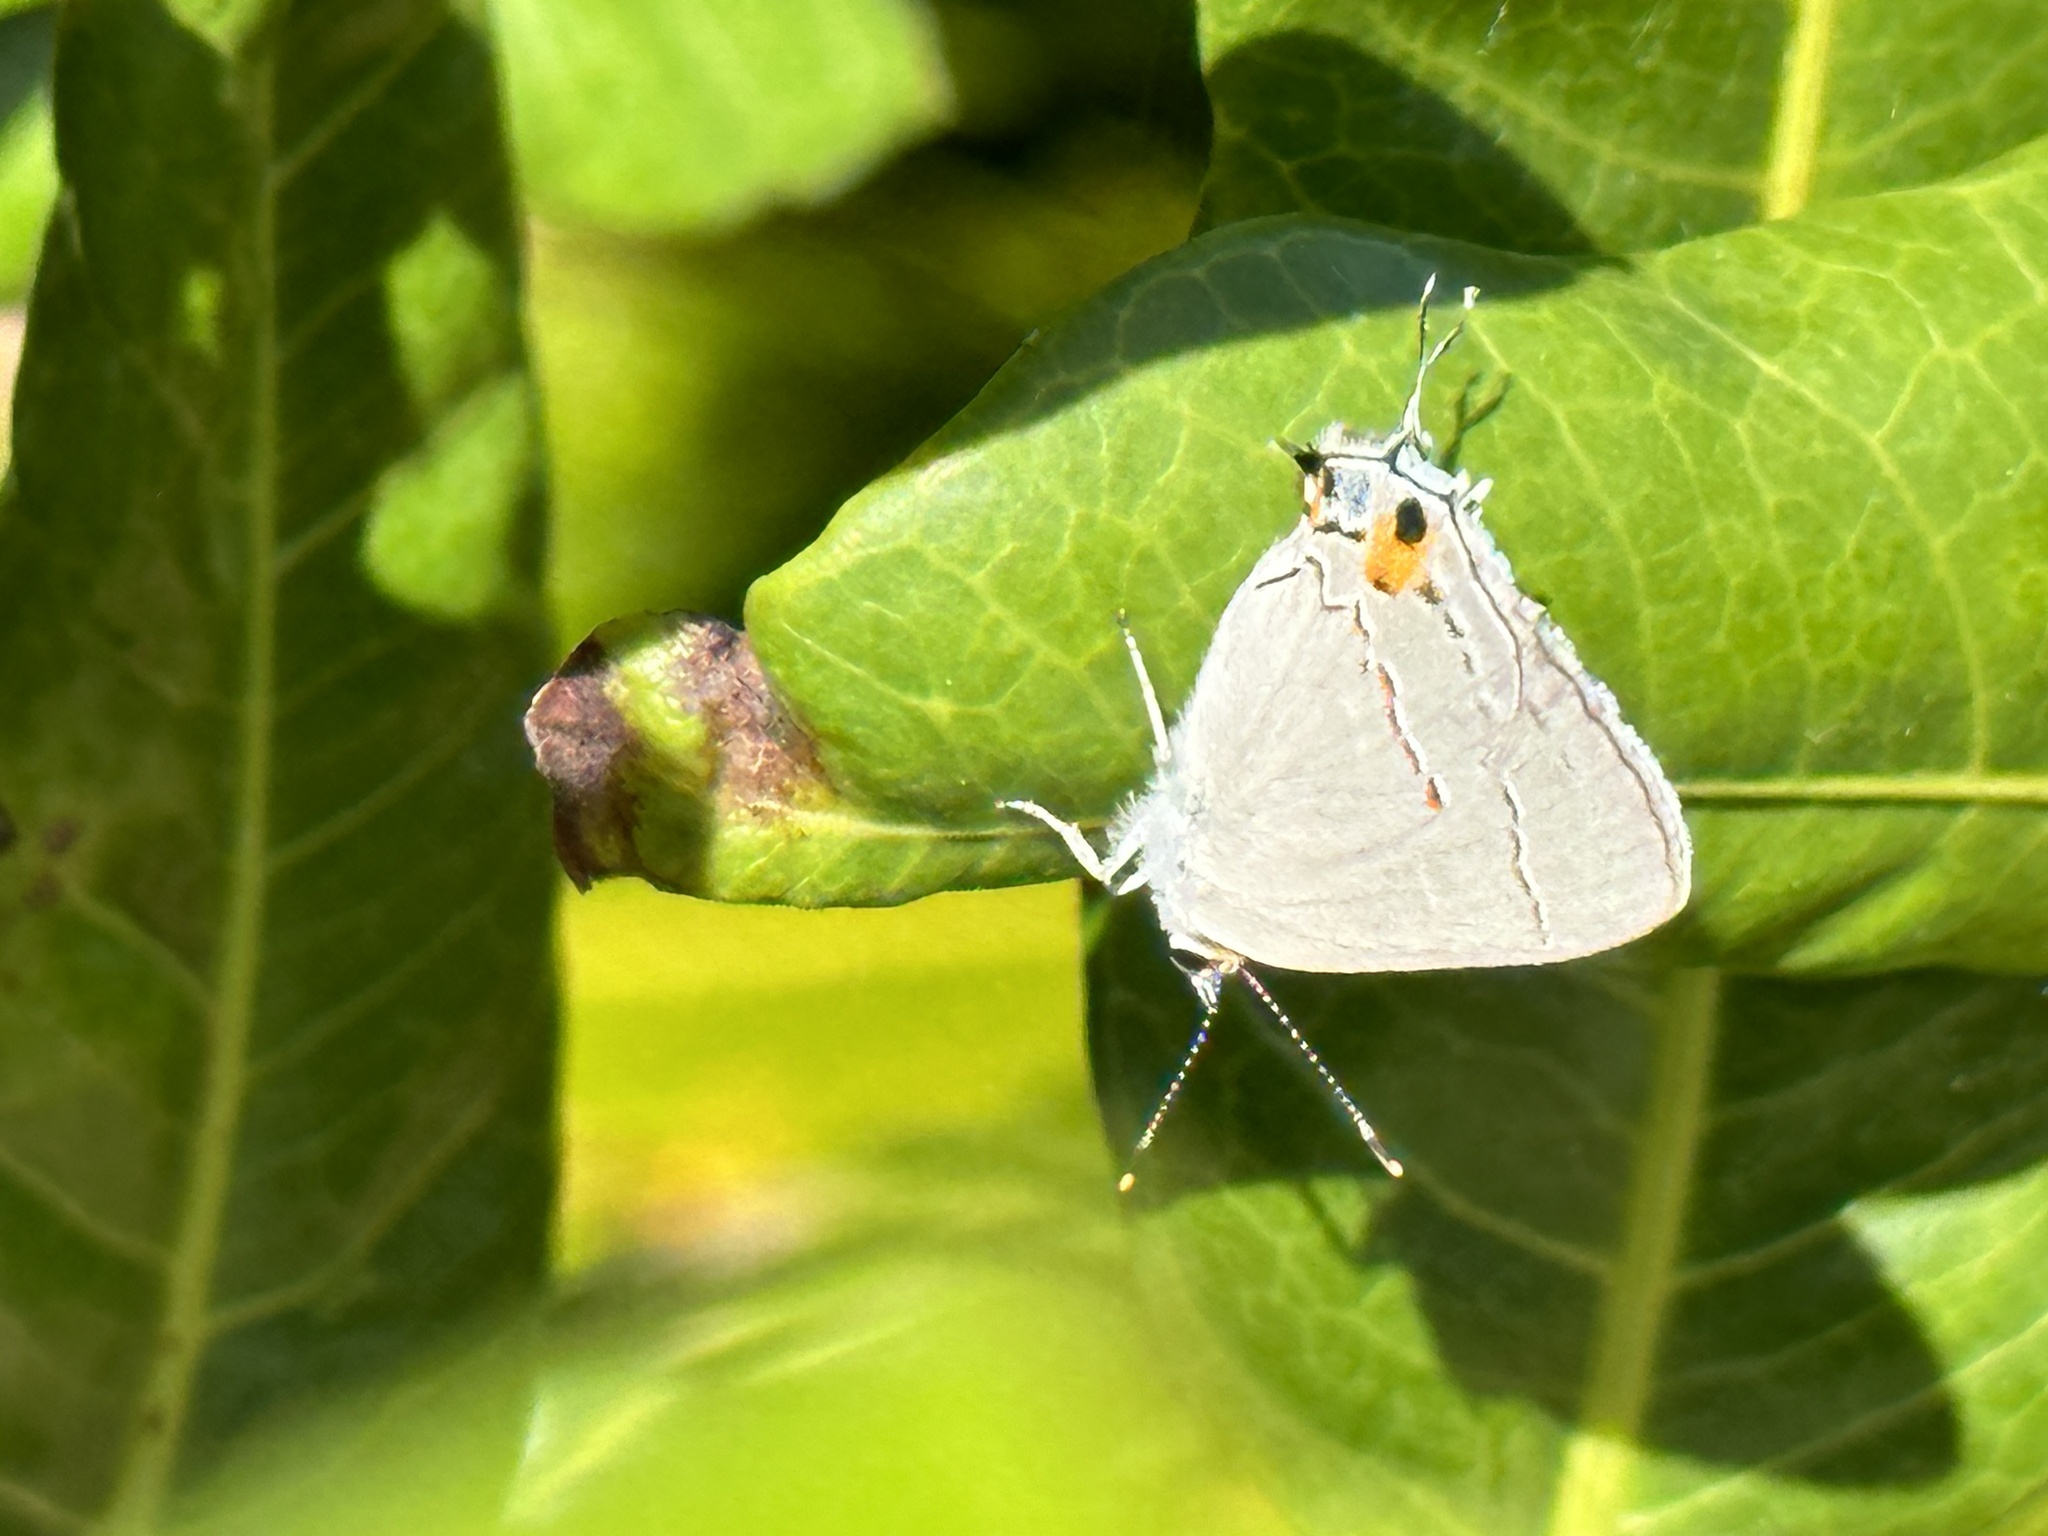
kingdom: Animalia
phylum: Arthropoda
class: Insecta
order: Lepidoptera
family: Lycaenidae
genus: Strymon
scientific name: Strymon melinus
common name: Gray hairstreak
